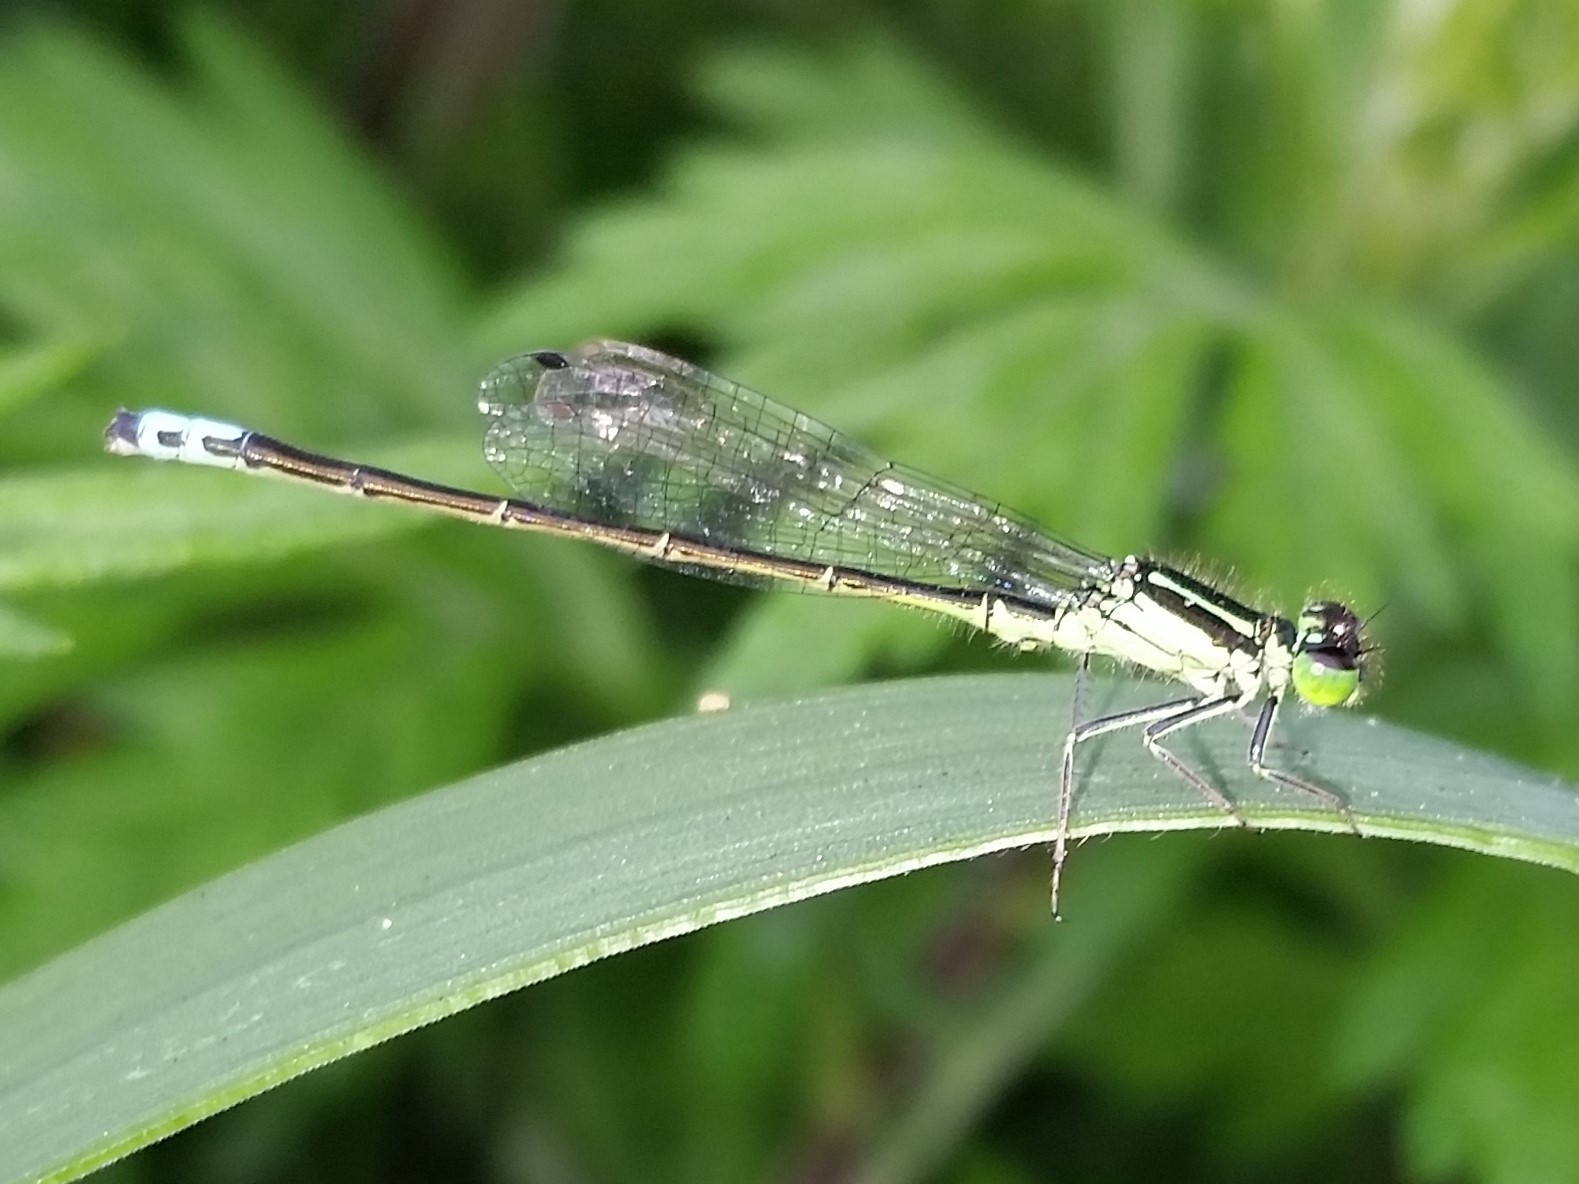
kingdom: Animalia
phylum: Arthropoda
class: Insecta
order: Odonata
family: Coenagrionidae
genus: Ischnura
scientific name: Ischnura verticalis
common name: Eastern forktail
